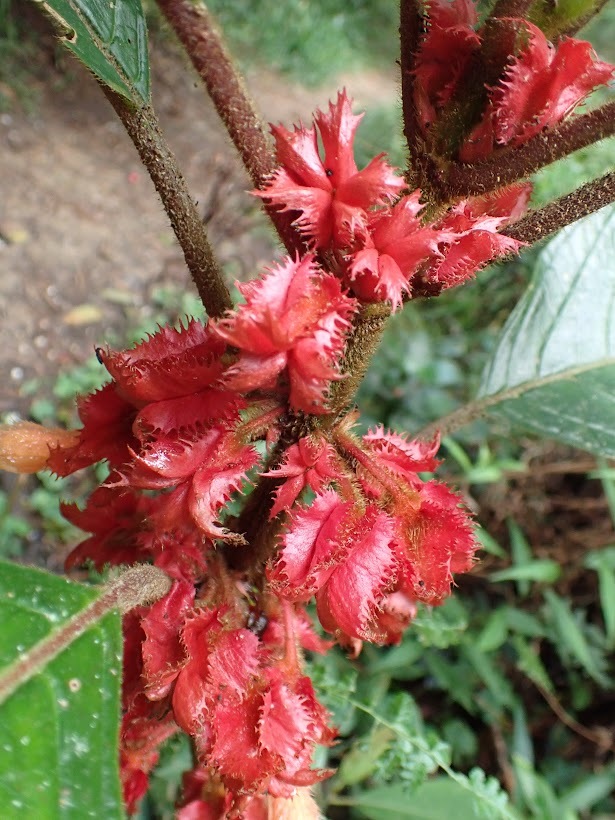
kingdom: Plantae
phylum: Tracheophyta
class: Magnoliopsida
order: Lamiales
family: Gesneriaceae
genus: Glossoloma
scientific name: Glossoloma cucullatum
